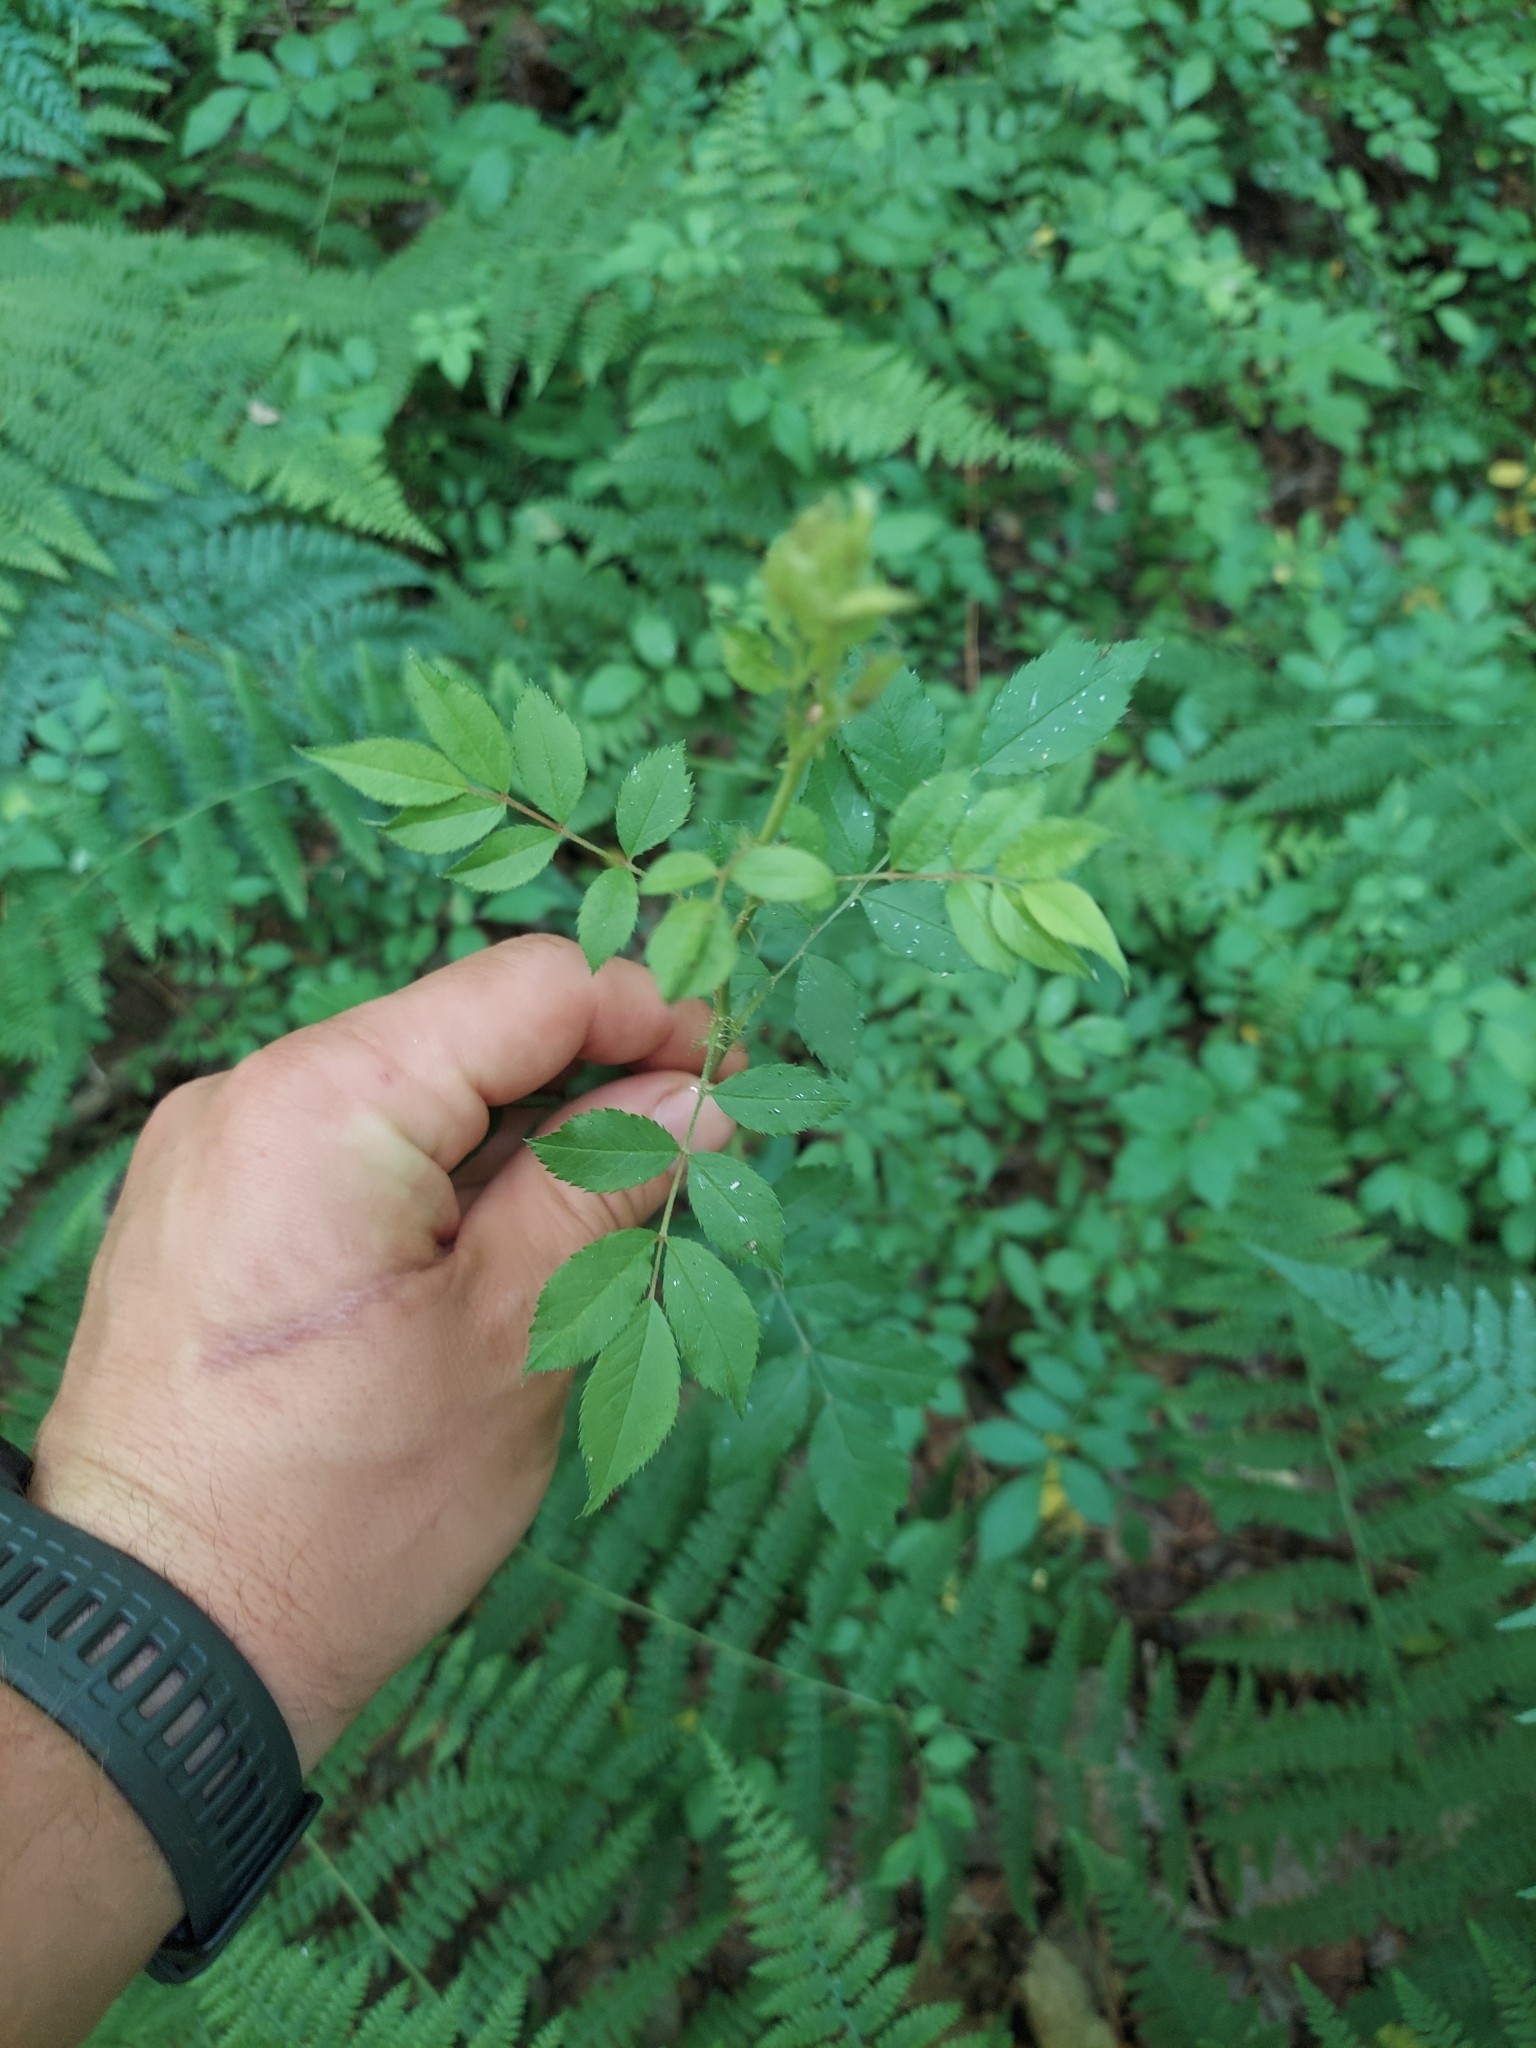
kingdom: Plantae
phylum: Tracheophyta
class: Magnoliopsida
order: Rosales
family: Rosaceae
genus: Rosa
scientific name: Rosa multiflora
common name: Multiflora rose
